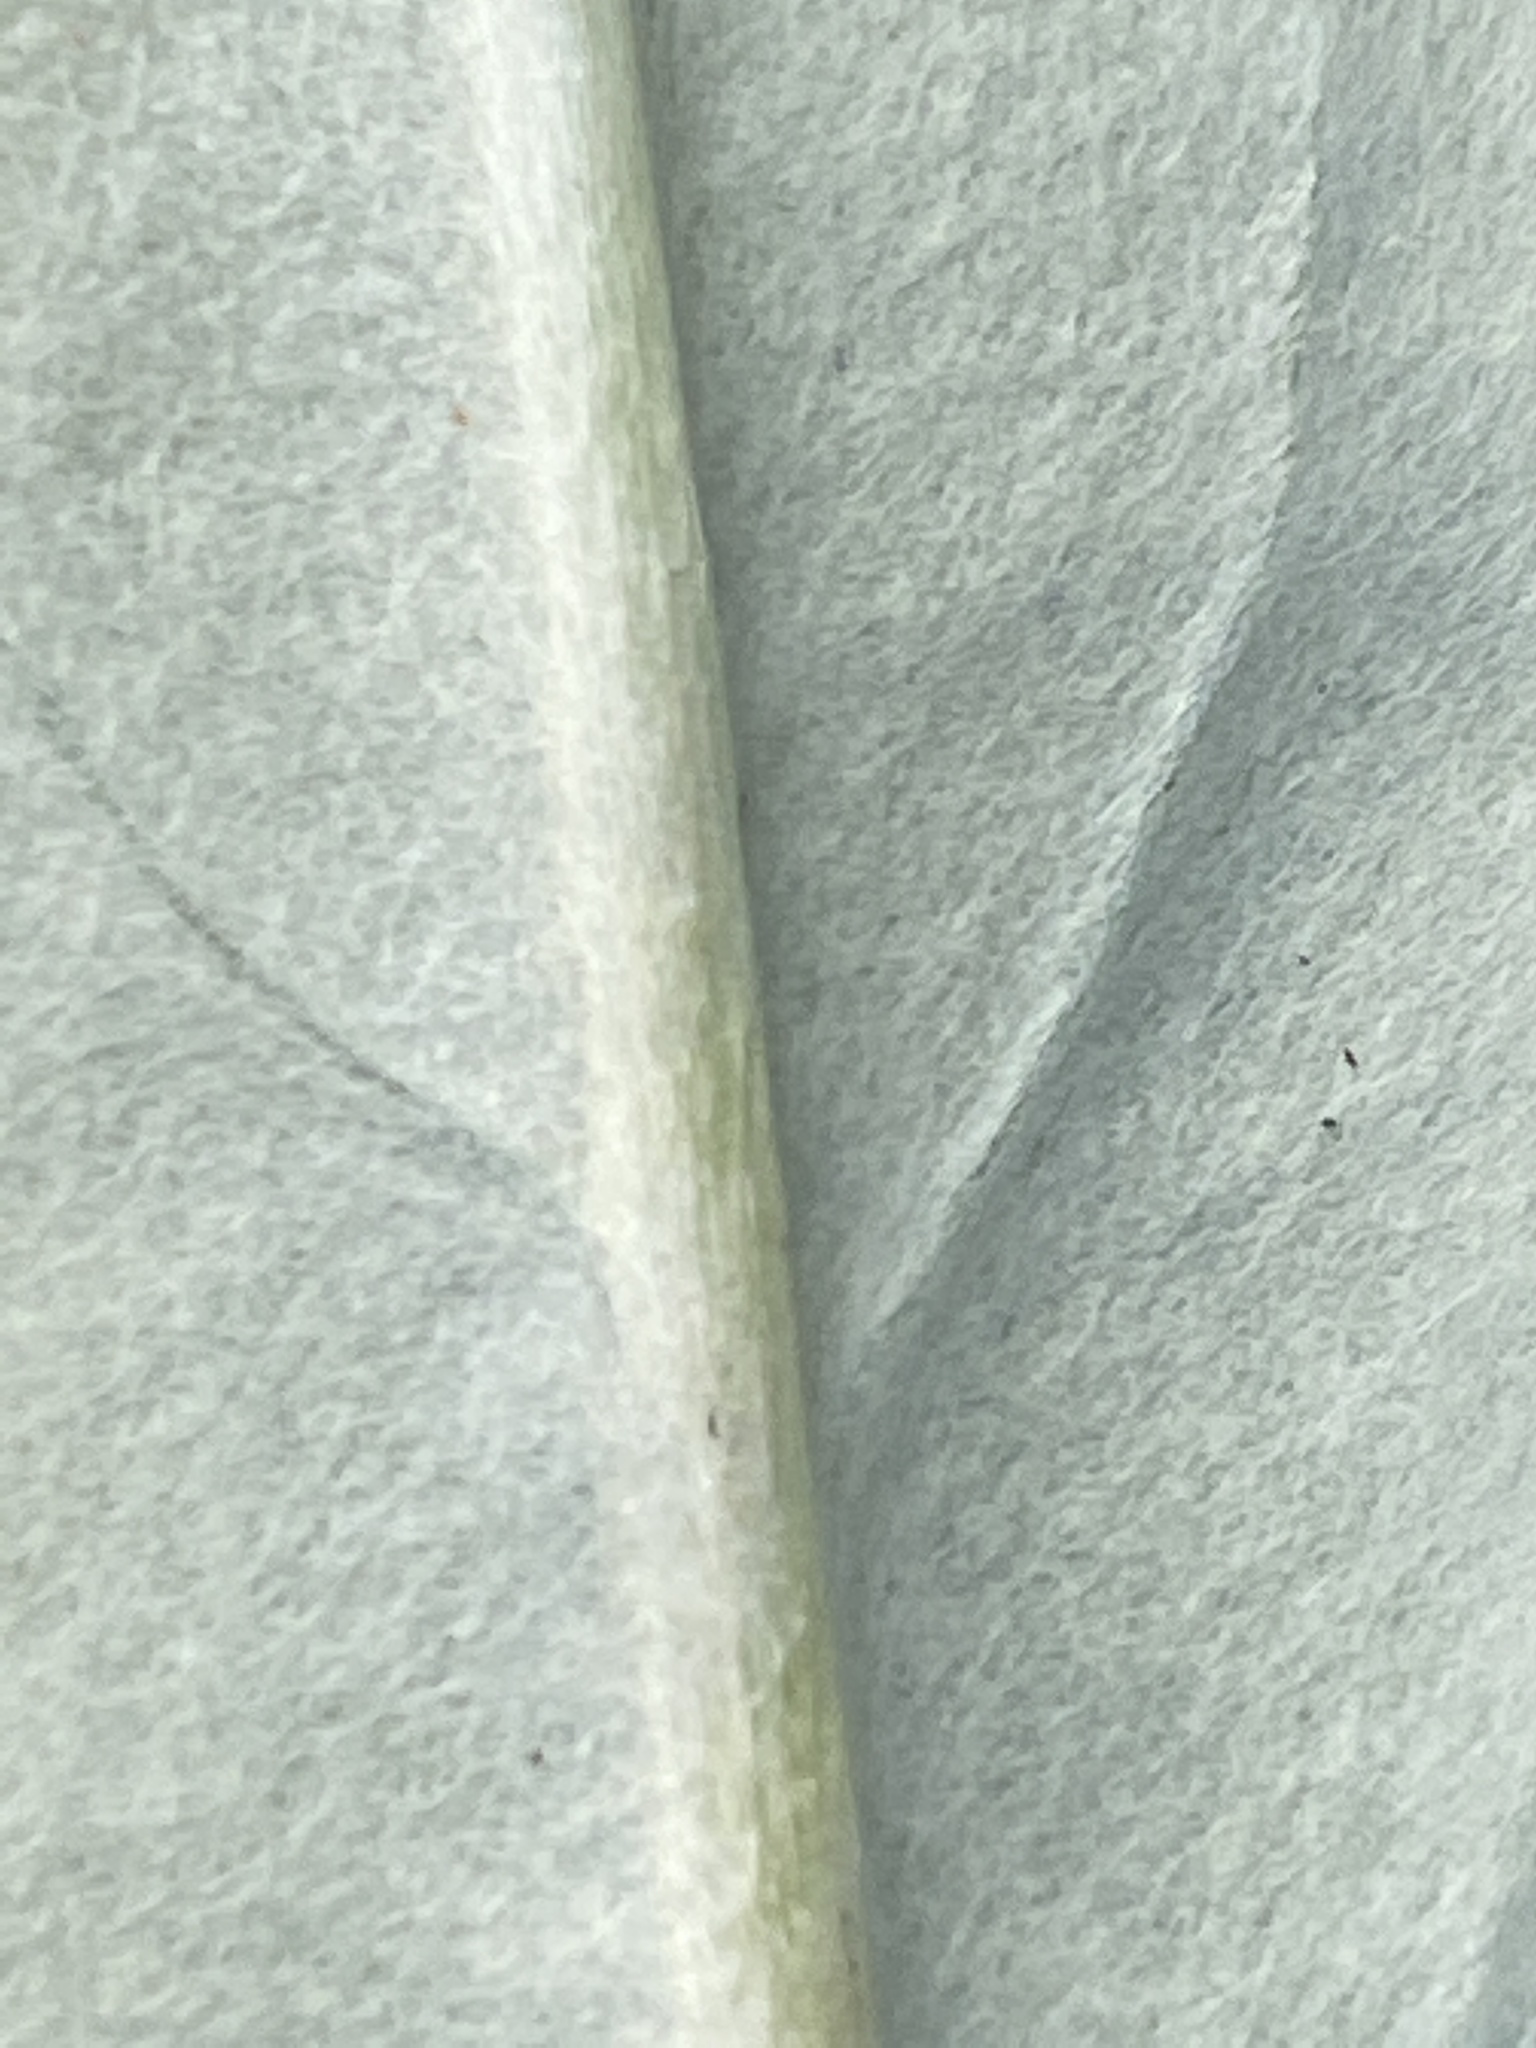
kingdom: Plantae
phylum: Tracheophyta
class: Magnoliopsida
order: Asterales
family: Asteraceae
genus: Chaptalia
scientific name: Chaptalia tomentosa
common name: Woolly sunbonnet
